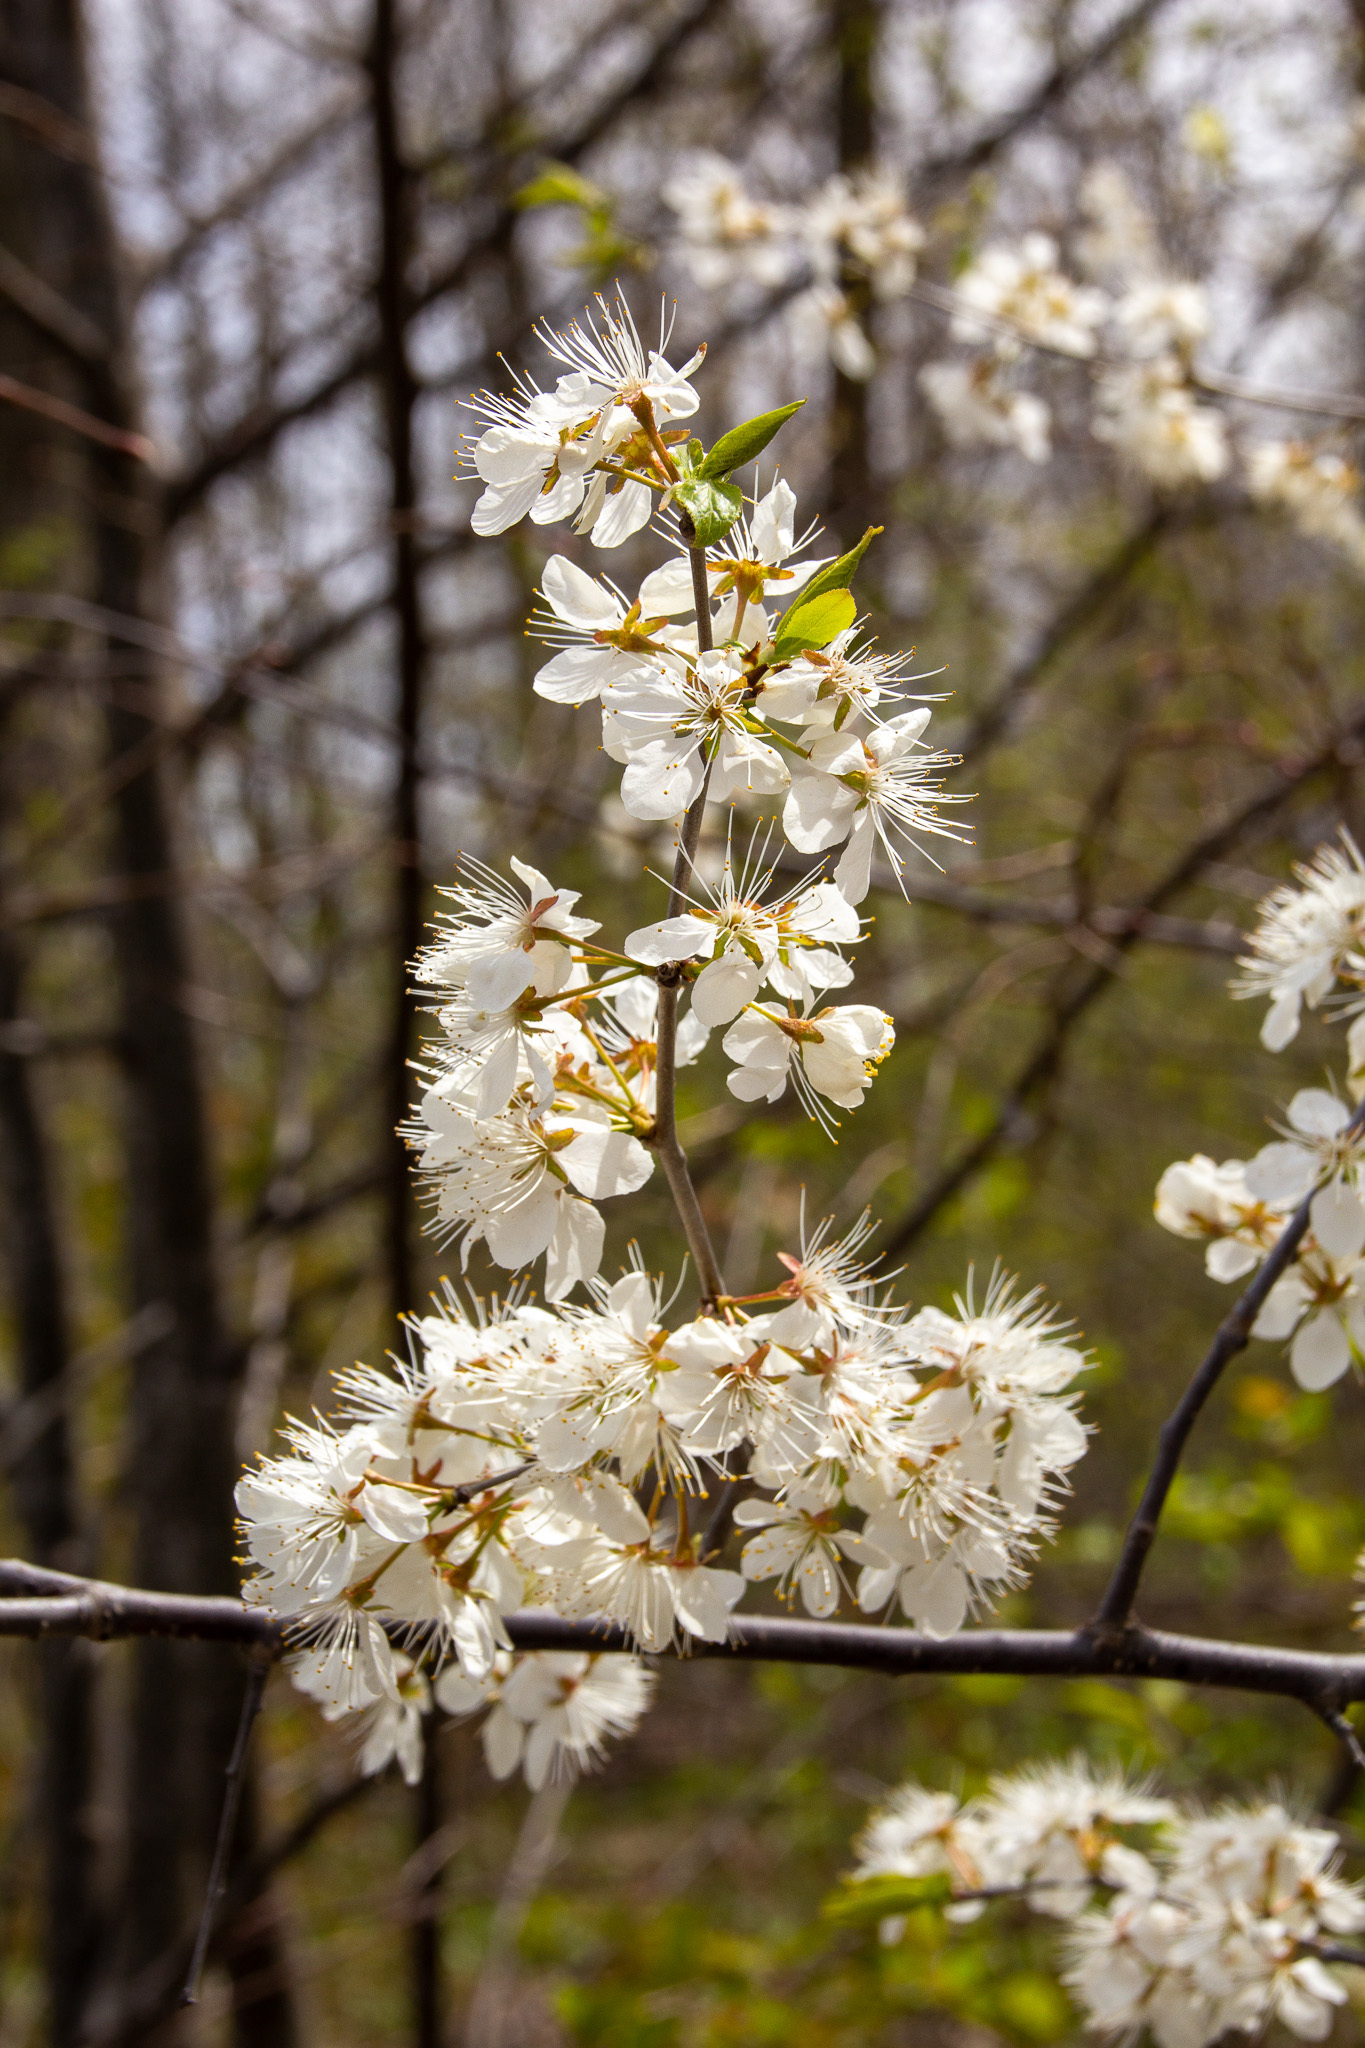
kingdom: Plantae
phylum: Tracheophyta
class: Magnoliopsida
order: Rosales
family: Rosaceae
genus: Prunus
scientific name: Prunus nigra
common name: Black plum
